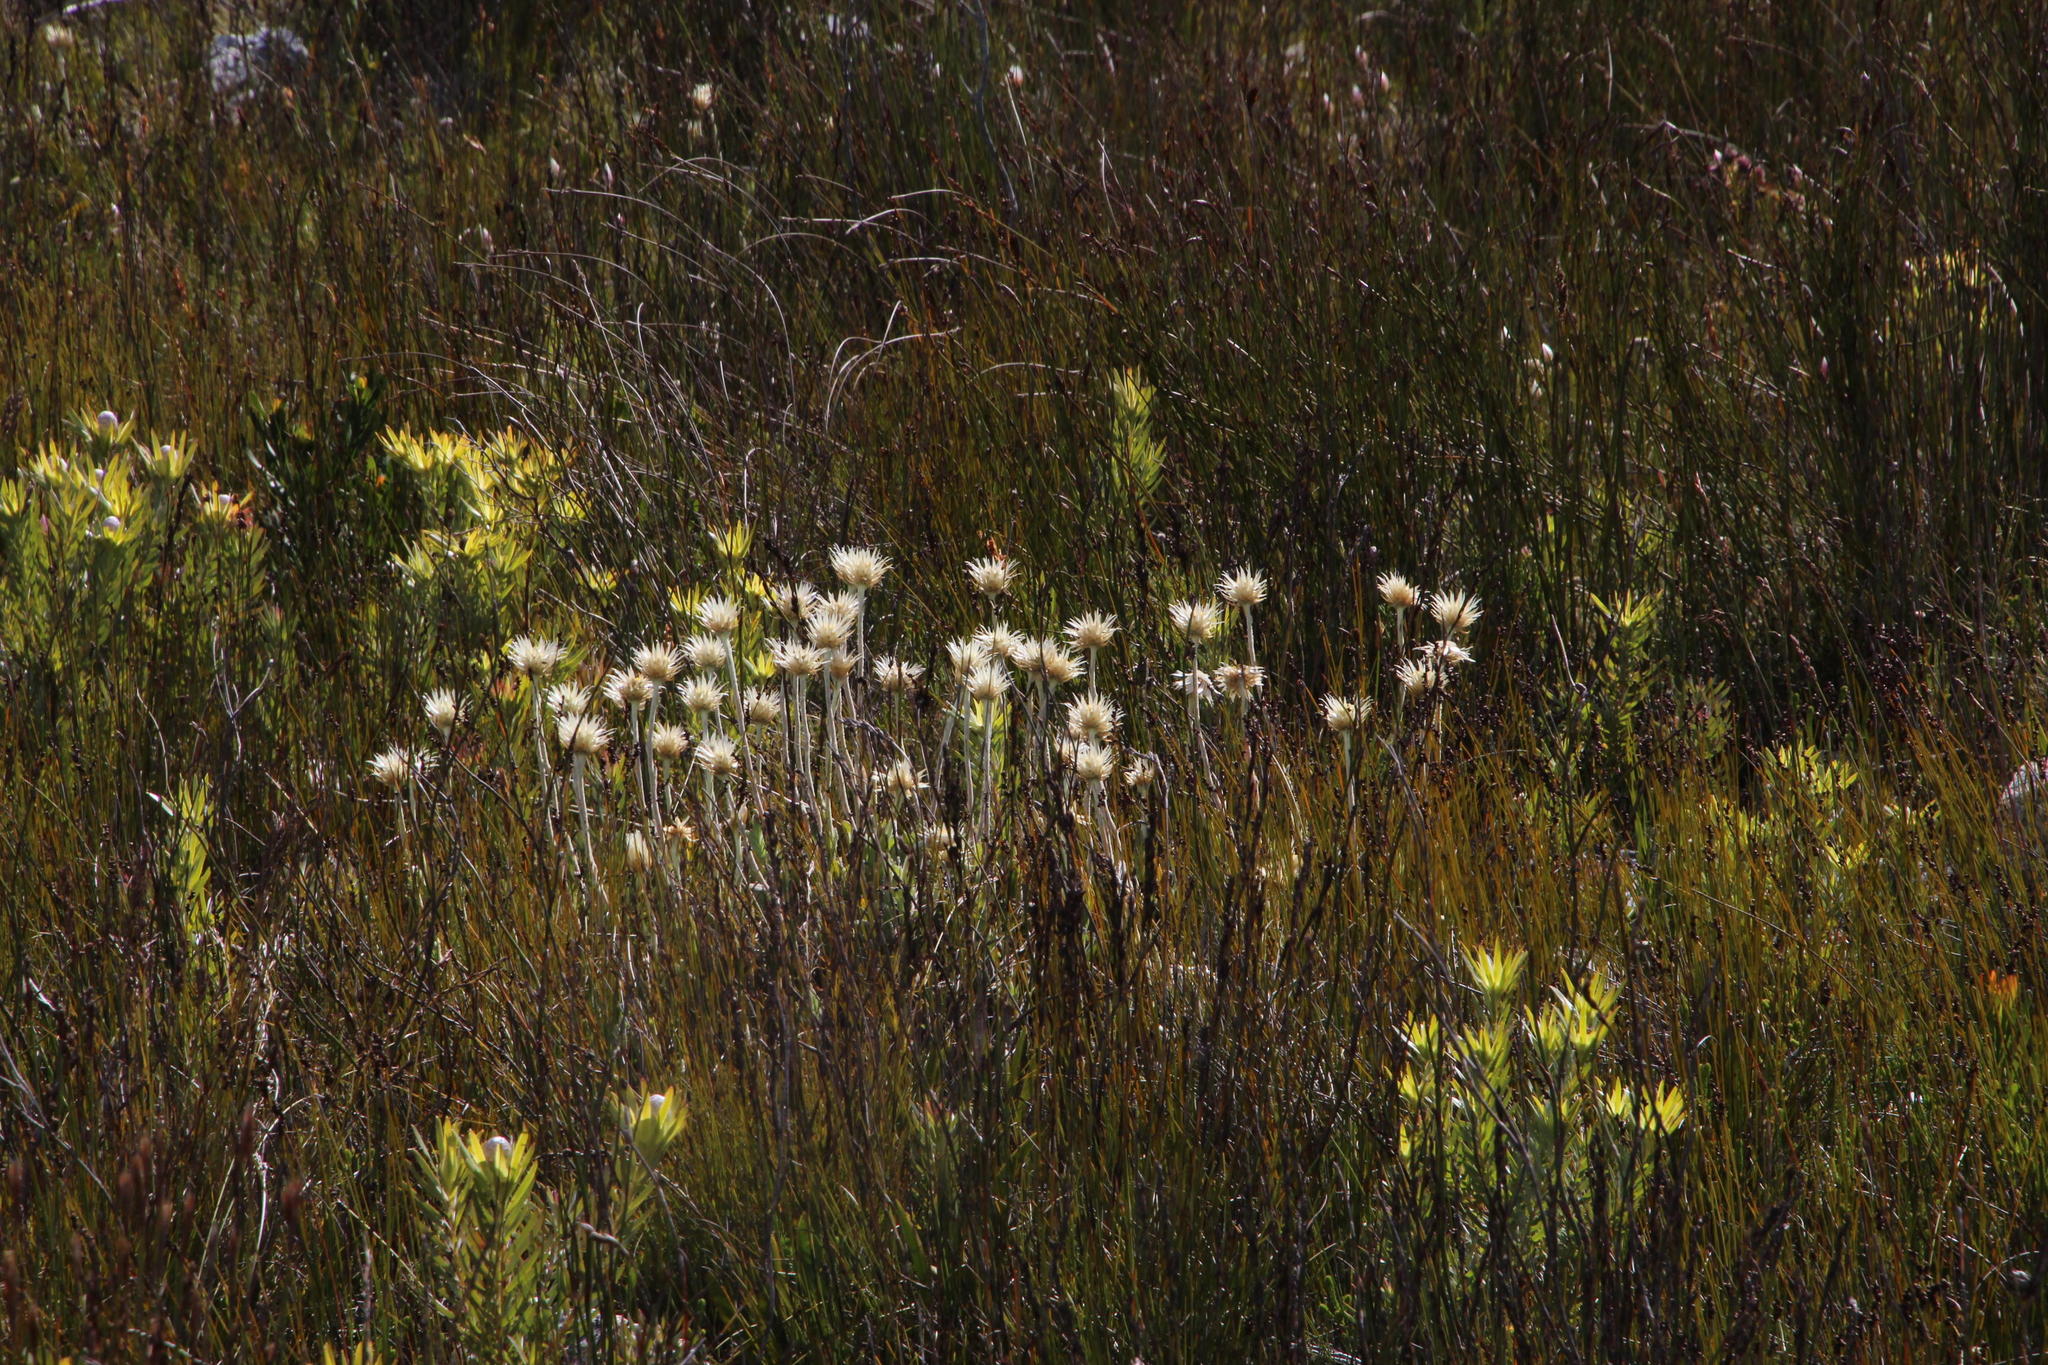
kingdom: Plantae
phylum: Tracheophyta
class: Magnoliopsida
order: Asterales
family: Asteraceae
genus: Syncarpha
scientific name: Syncarpha speciosissima
